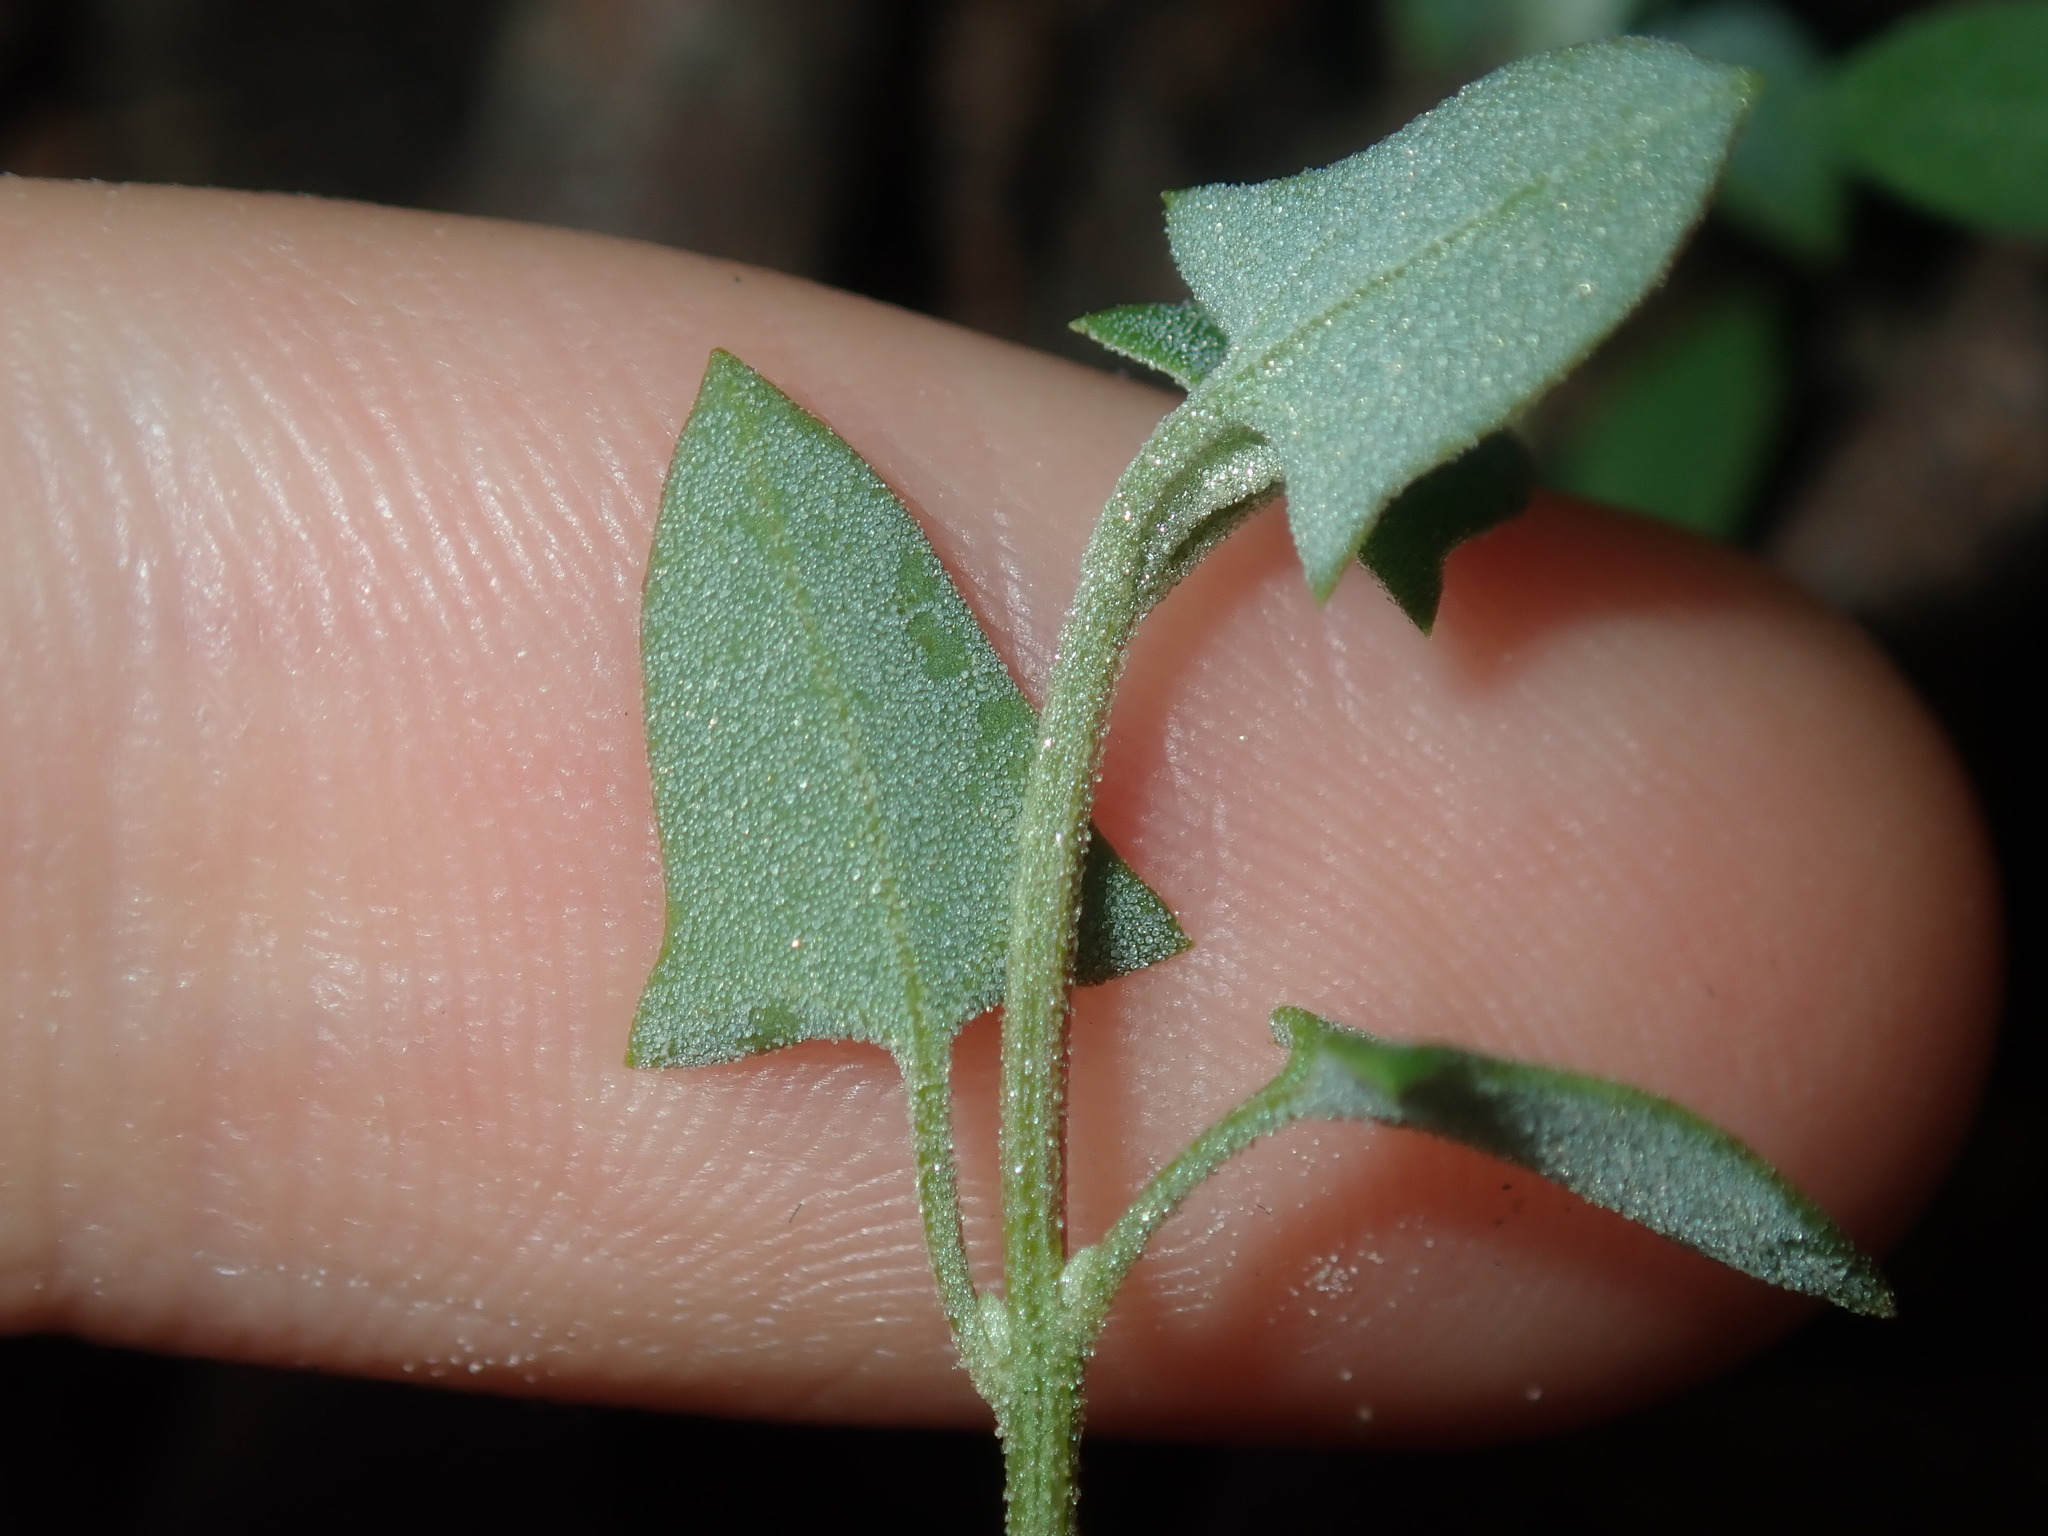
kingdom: Plantae
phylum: Tracheophyta
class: Magnoliopsida
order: Caryophyllales
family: Amaranthaceae
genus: Chenopodium
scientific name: Chenopodium trigonon
